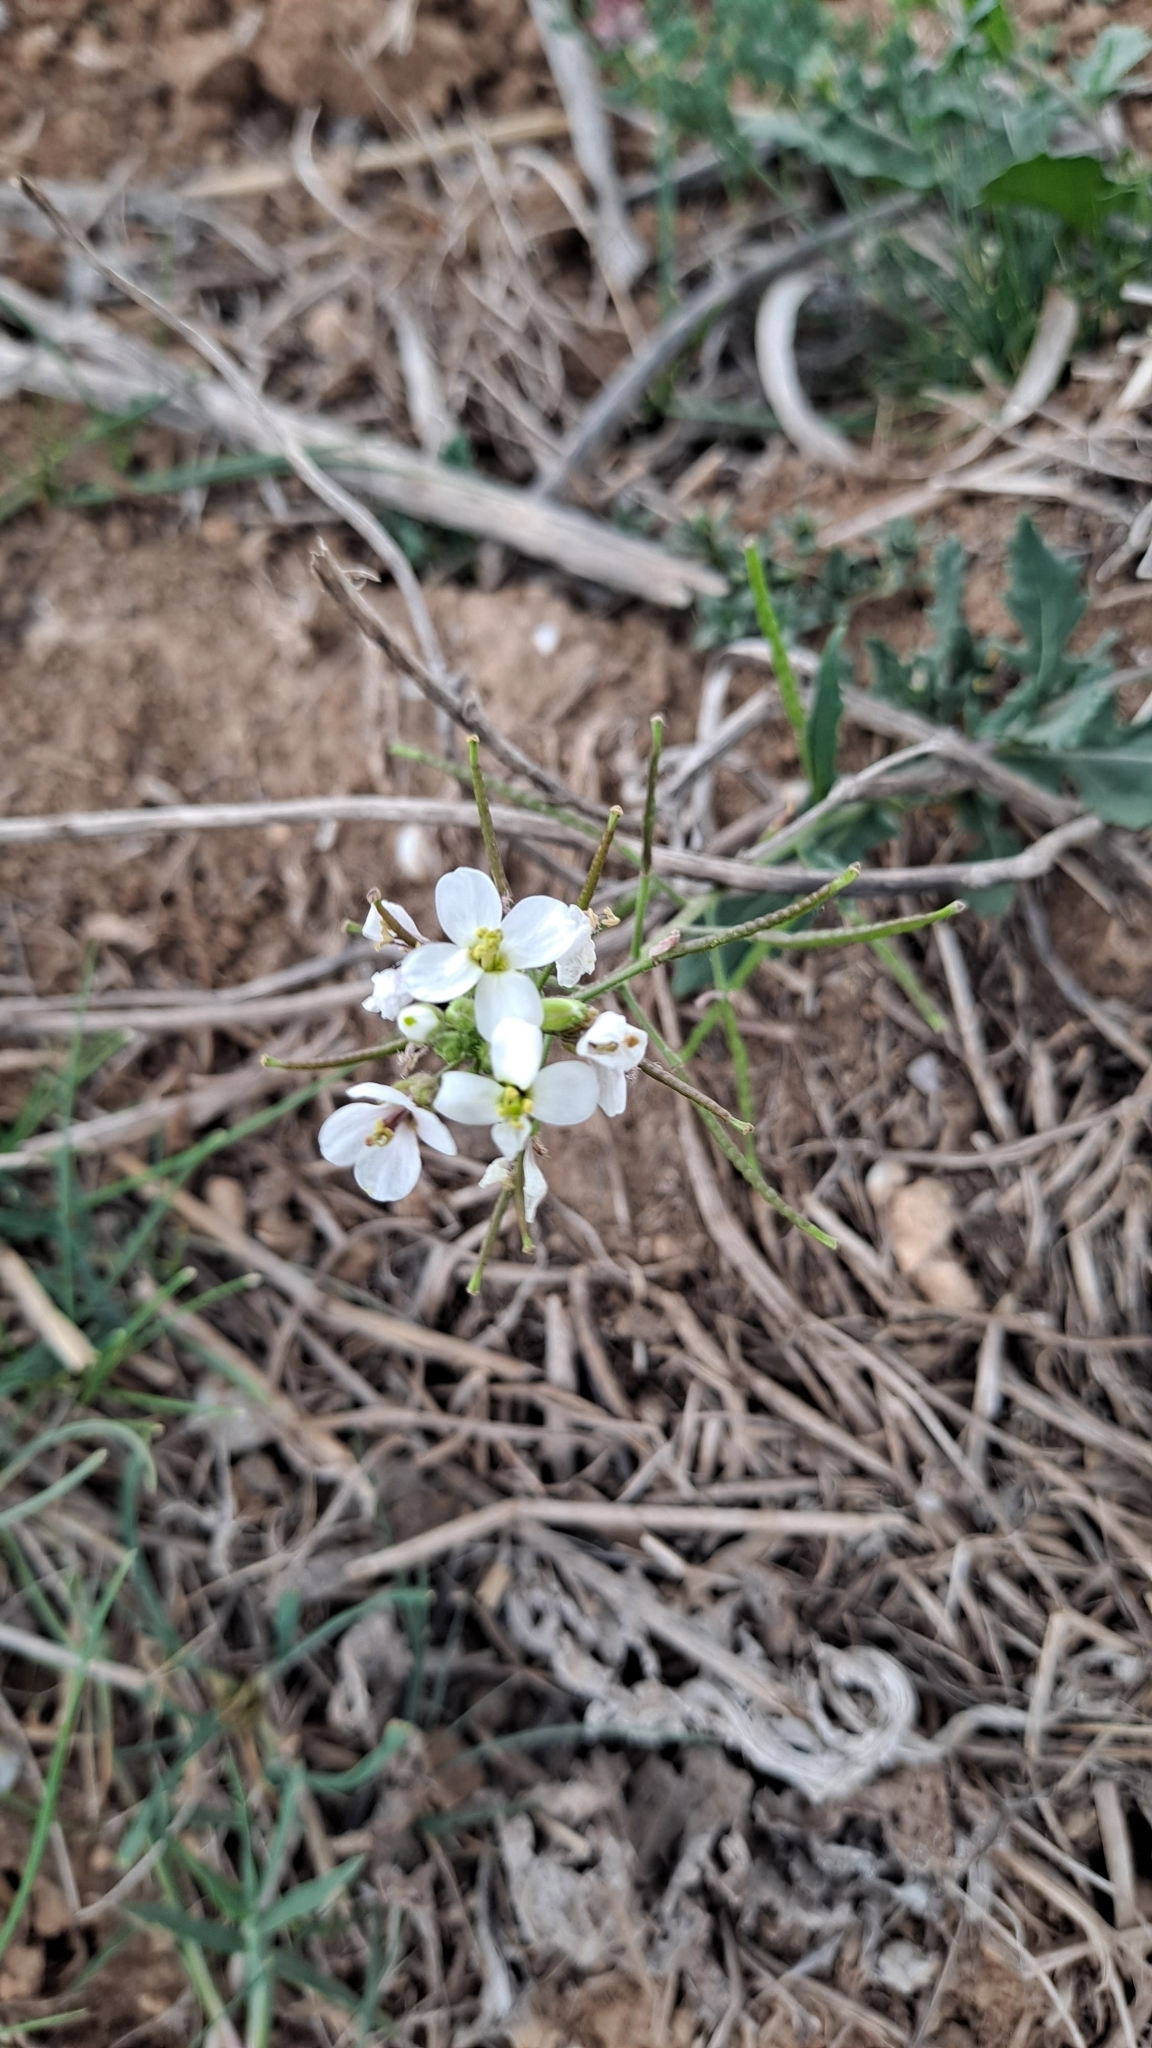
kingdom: Plantae
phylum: Tracheophyta
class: Magnoliopsida
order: Brassicales
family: Brassicaceae
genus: Diplotaxis
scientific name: Diplotaxis erucoides
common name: White rocket
